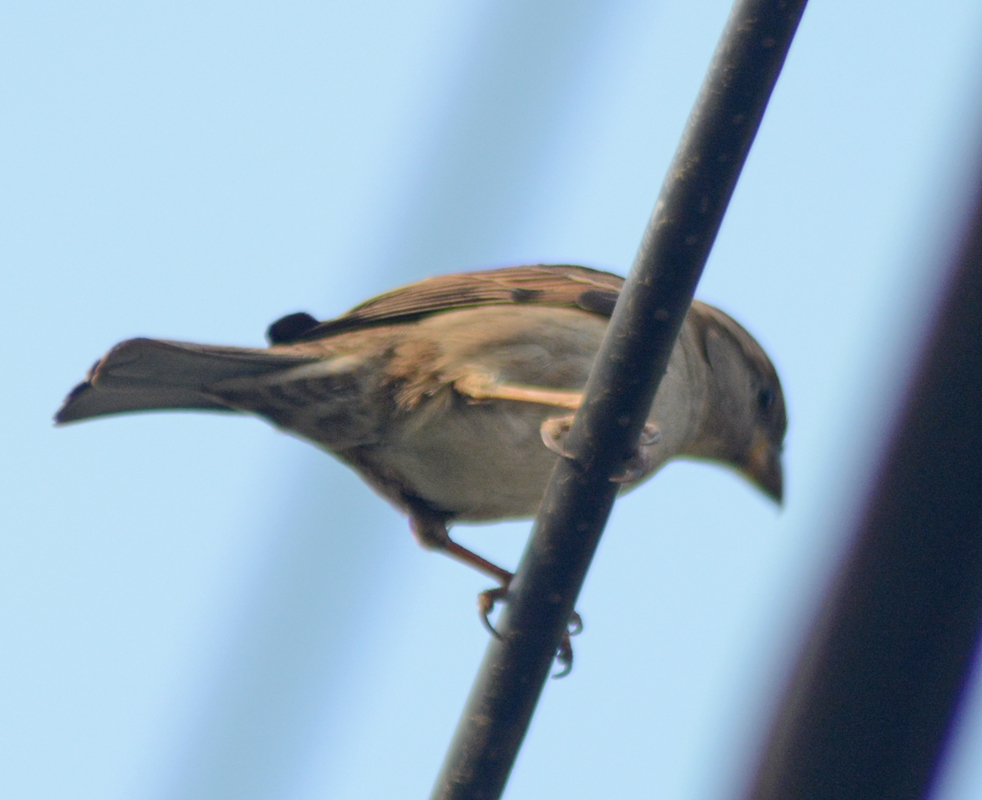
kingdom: Animalia
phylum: Chordata
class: Aves
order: Passeriformes
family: Passeridae
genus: Passer
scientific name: Passer domesticus
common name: House sparrow
